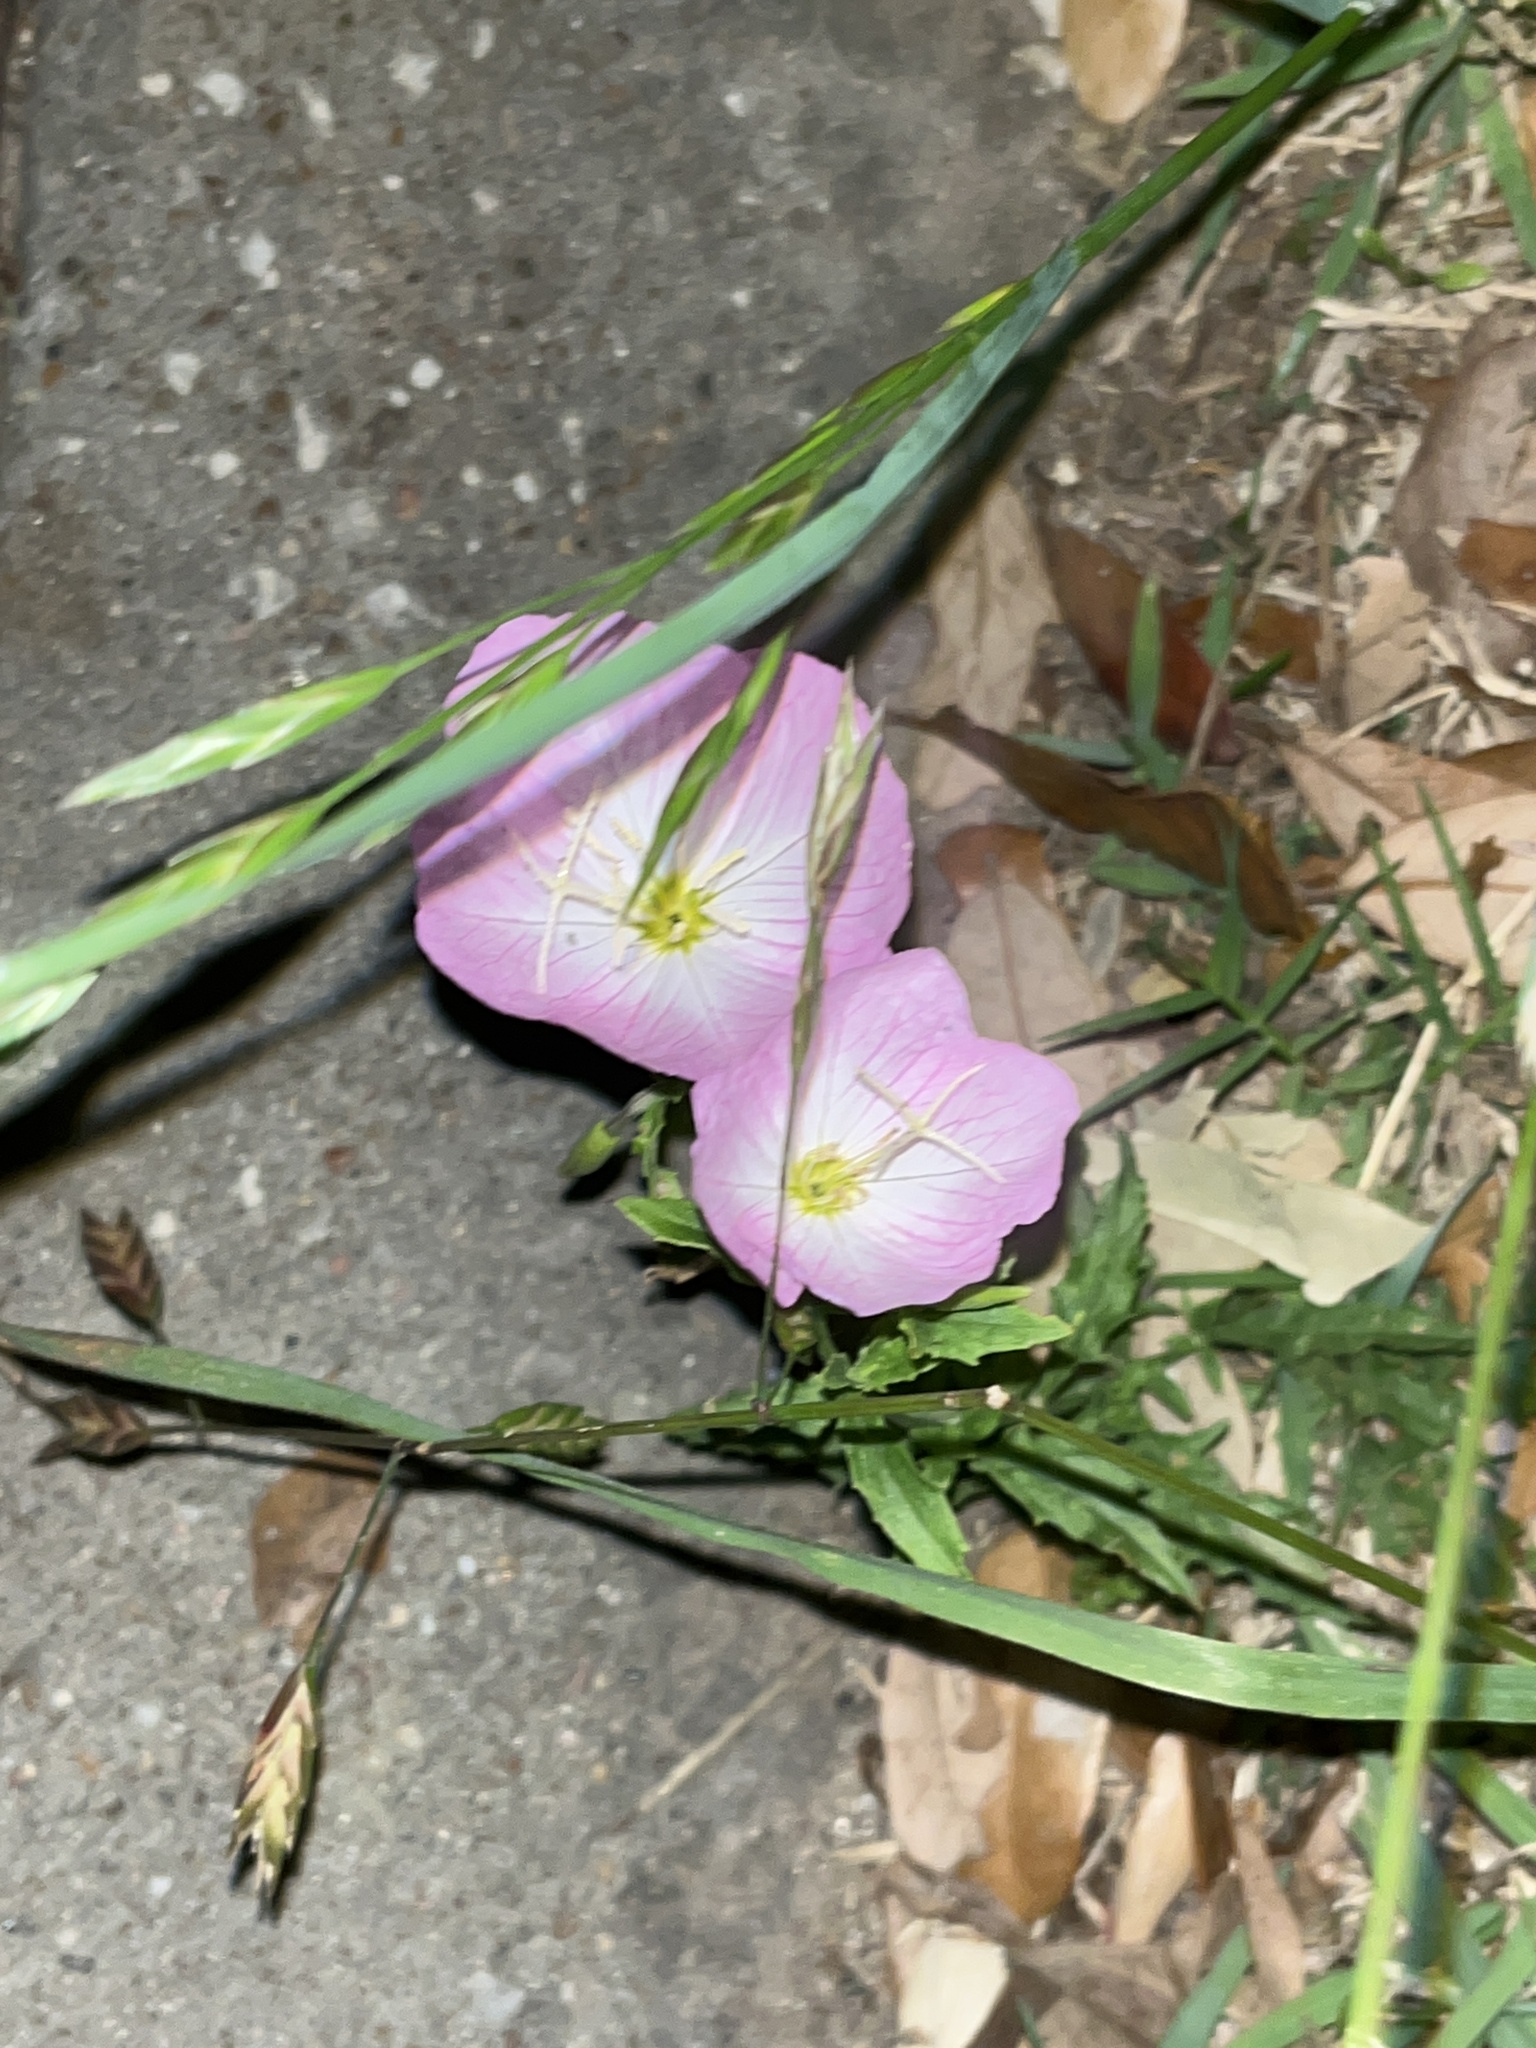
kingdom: Plantae
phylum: Tracheophyta
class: Magnoliopsida
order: Myrtales
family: Onagraceae
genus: Oenothera
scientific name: Oenothera speciosa
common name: White evening-primrose
